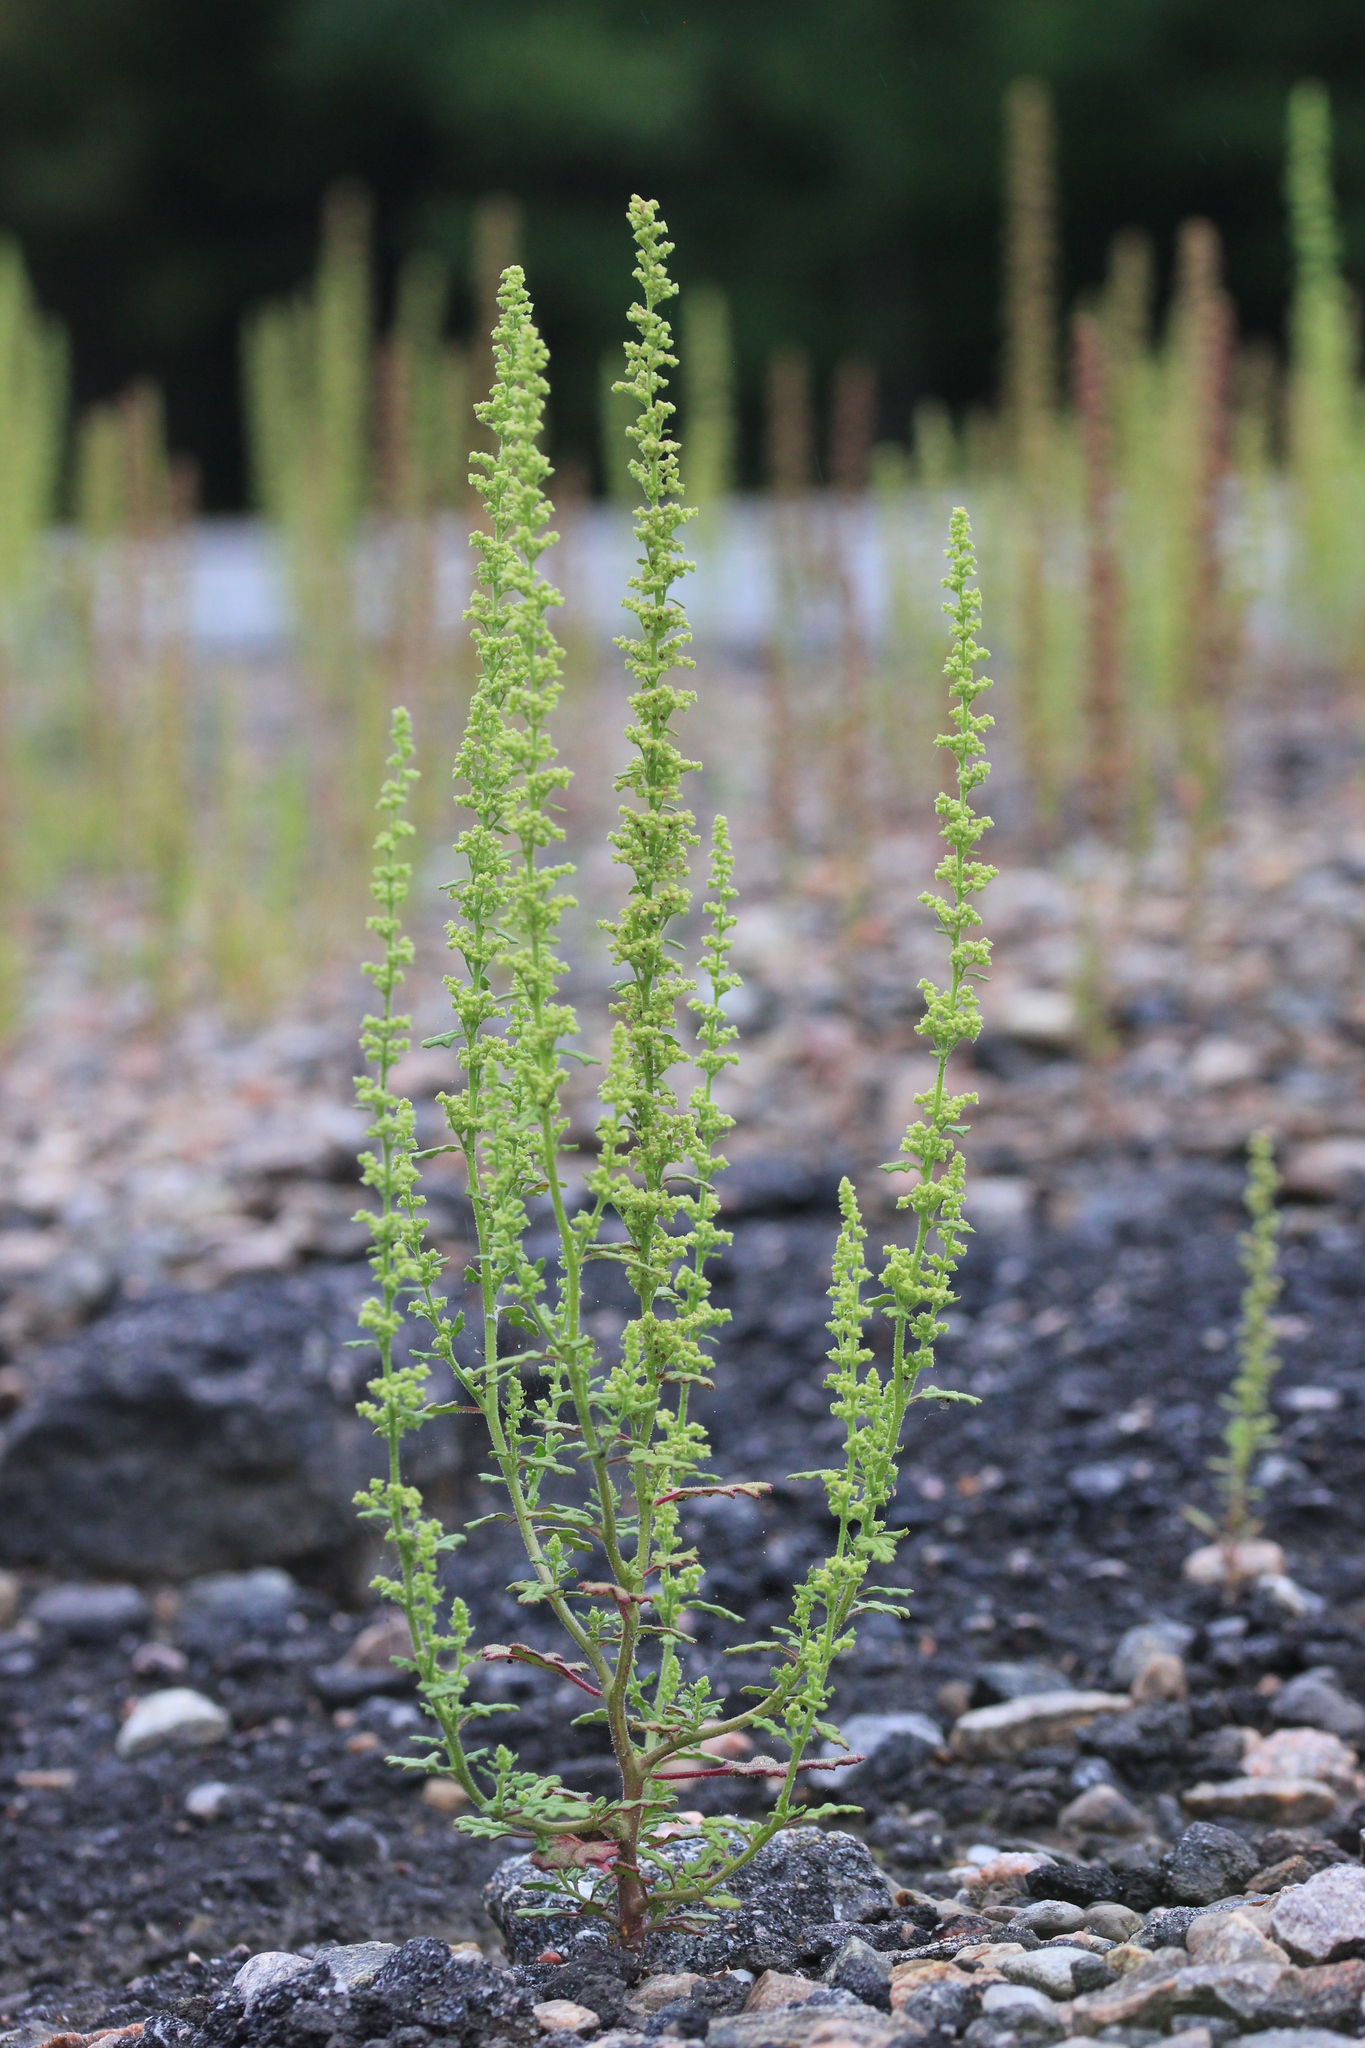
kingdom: Plantae
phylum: Tracheophyta
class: Magnoliopsida
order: Caryophyllales
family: Amaranthaceae
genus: Dysphania
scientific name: Dysphania botrys
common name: Feather-geranium
